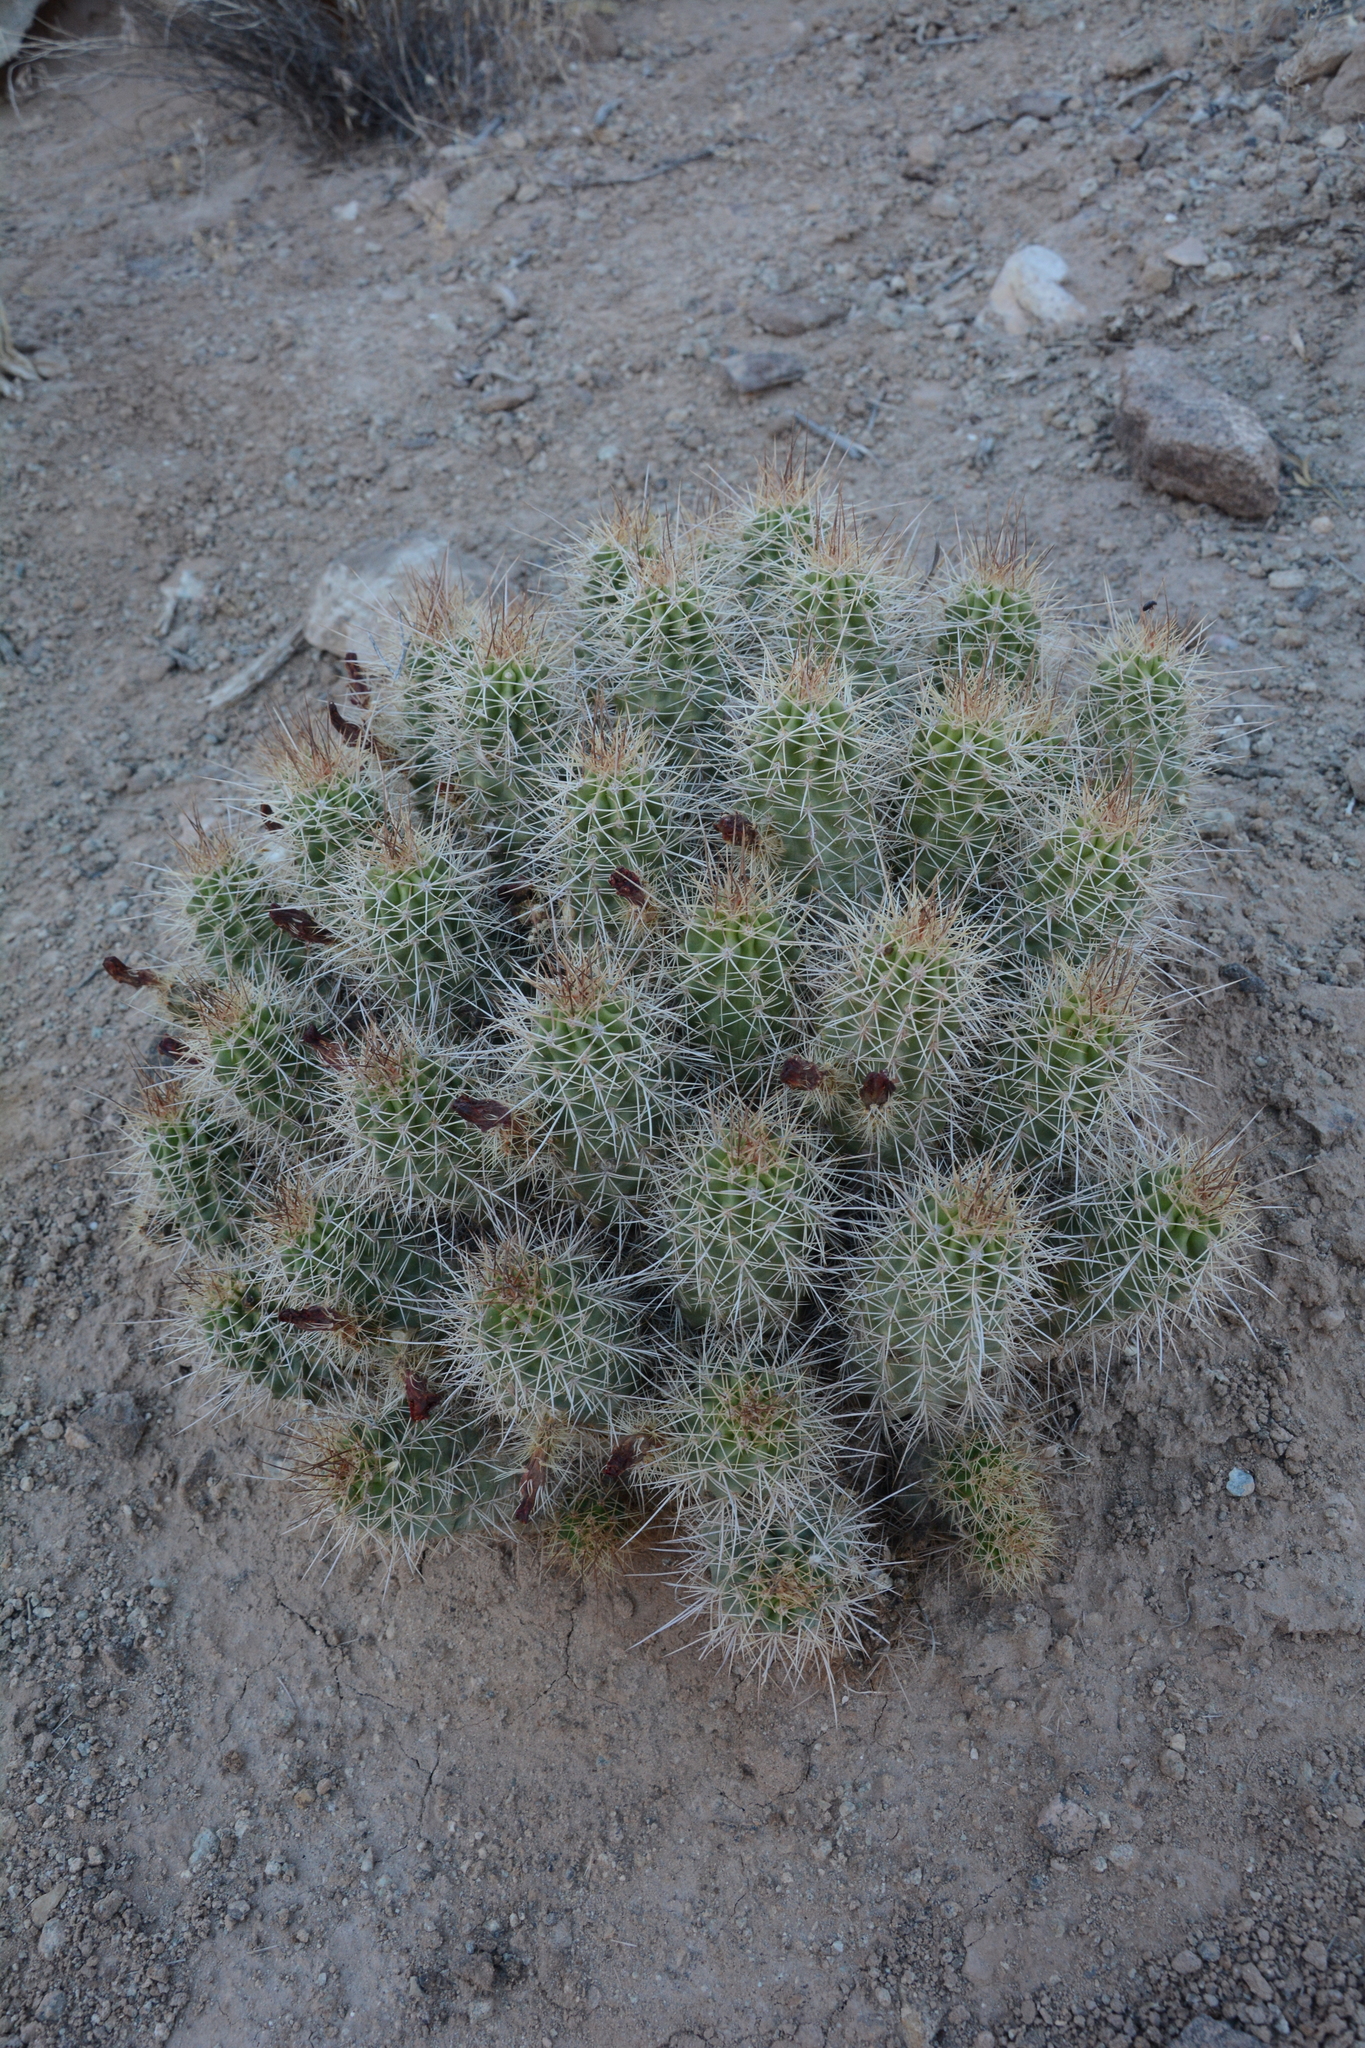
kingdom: Plantae
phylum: Tracheophyta
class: Magnoliopsida
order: Caryophyllales
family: Cactaceae
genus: Echinocereus
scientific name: Echinocereus triglochidiatus
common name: Claretcup hedgehog
